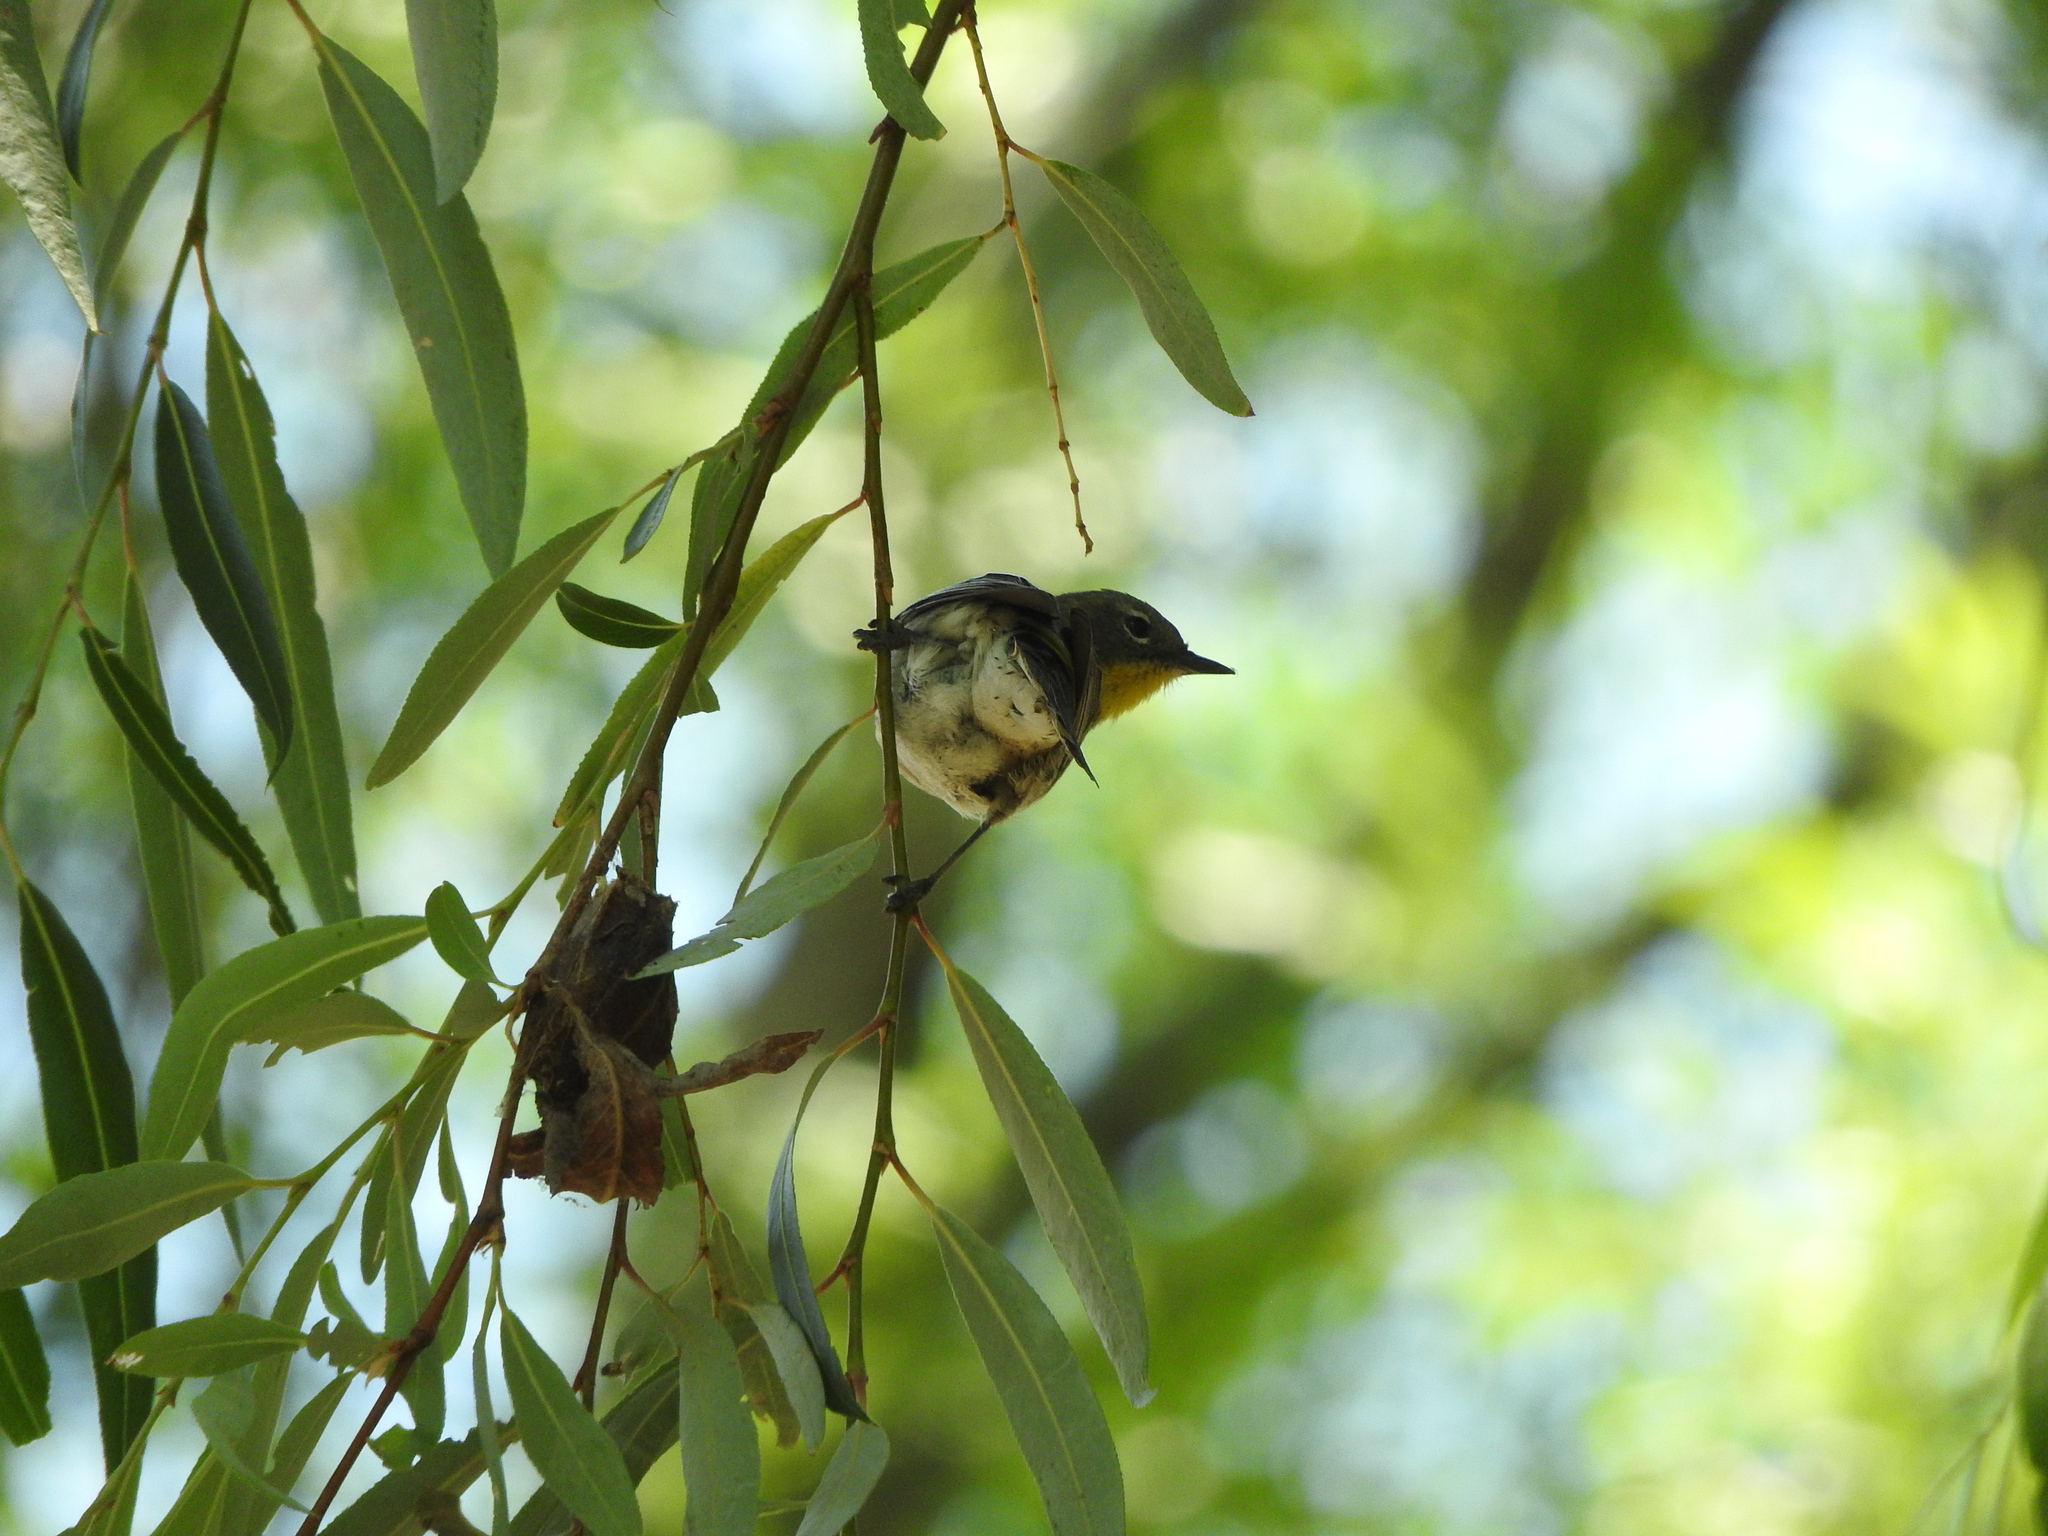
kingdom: Animalia
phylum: Chordata
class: Aves
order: Passeriformes
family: Parulidae
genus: Setophaga
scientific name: Setophaga coronata
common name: Myrtle warbler
